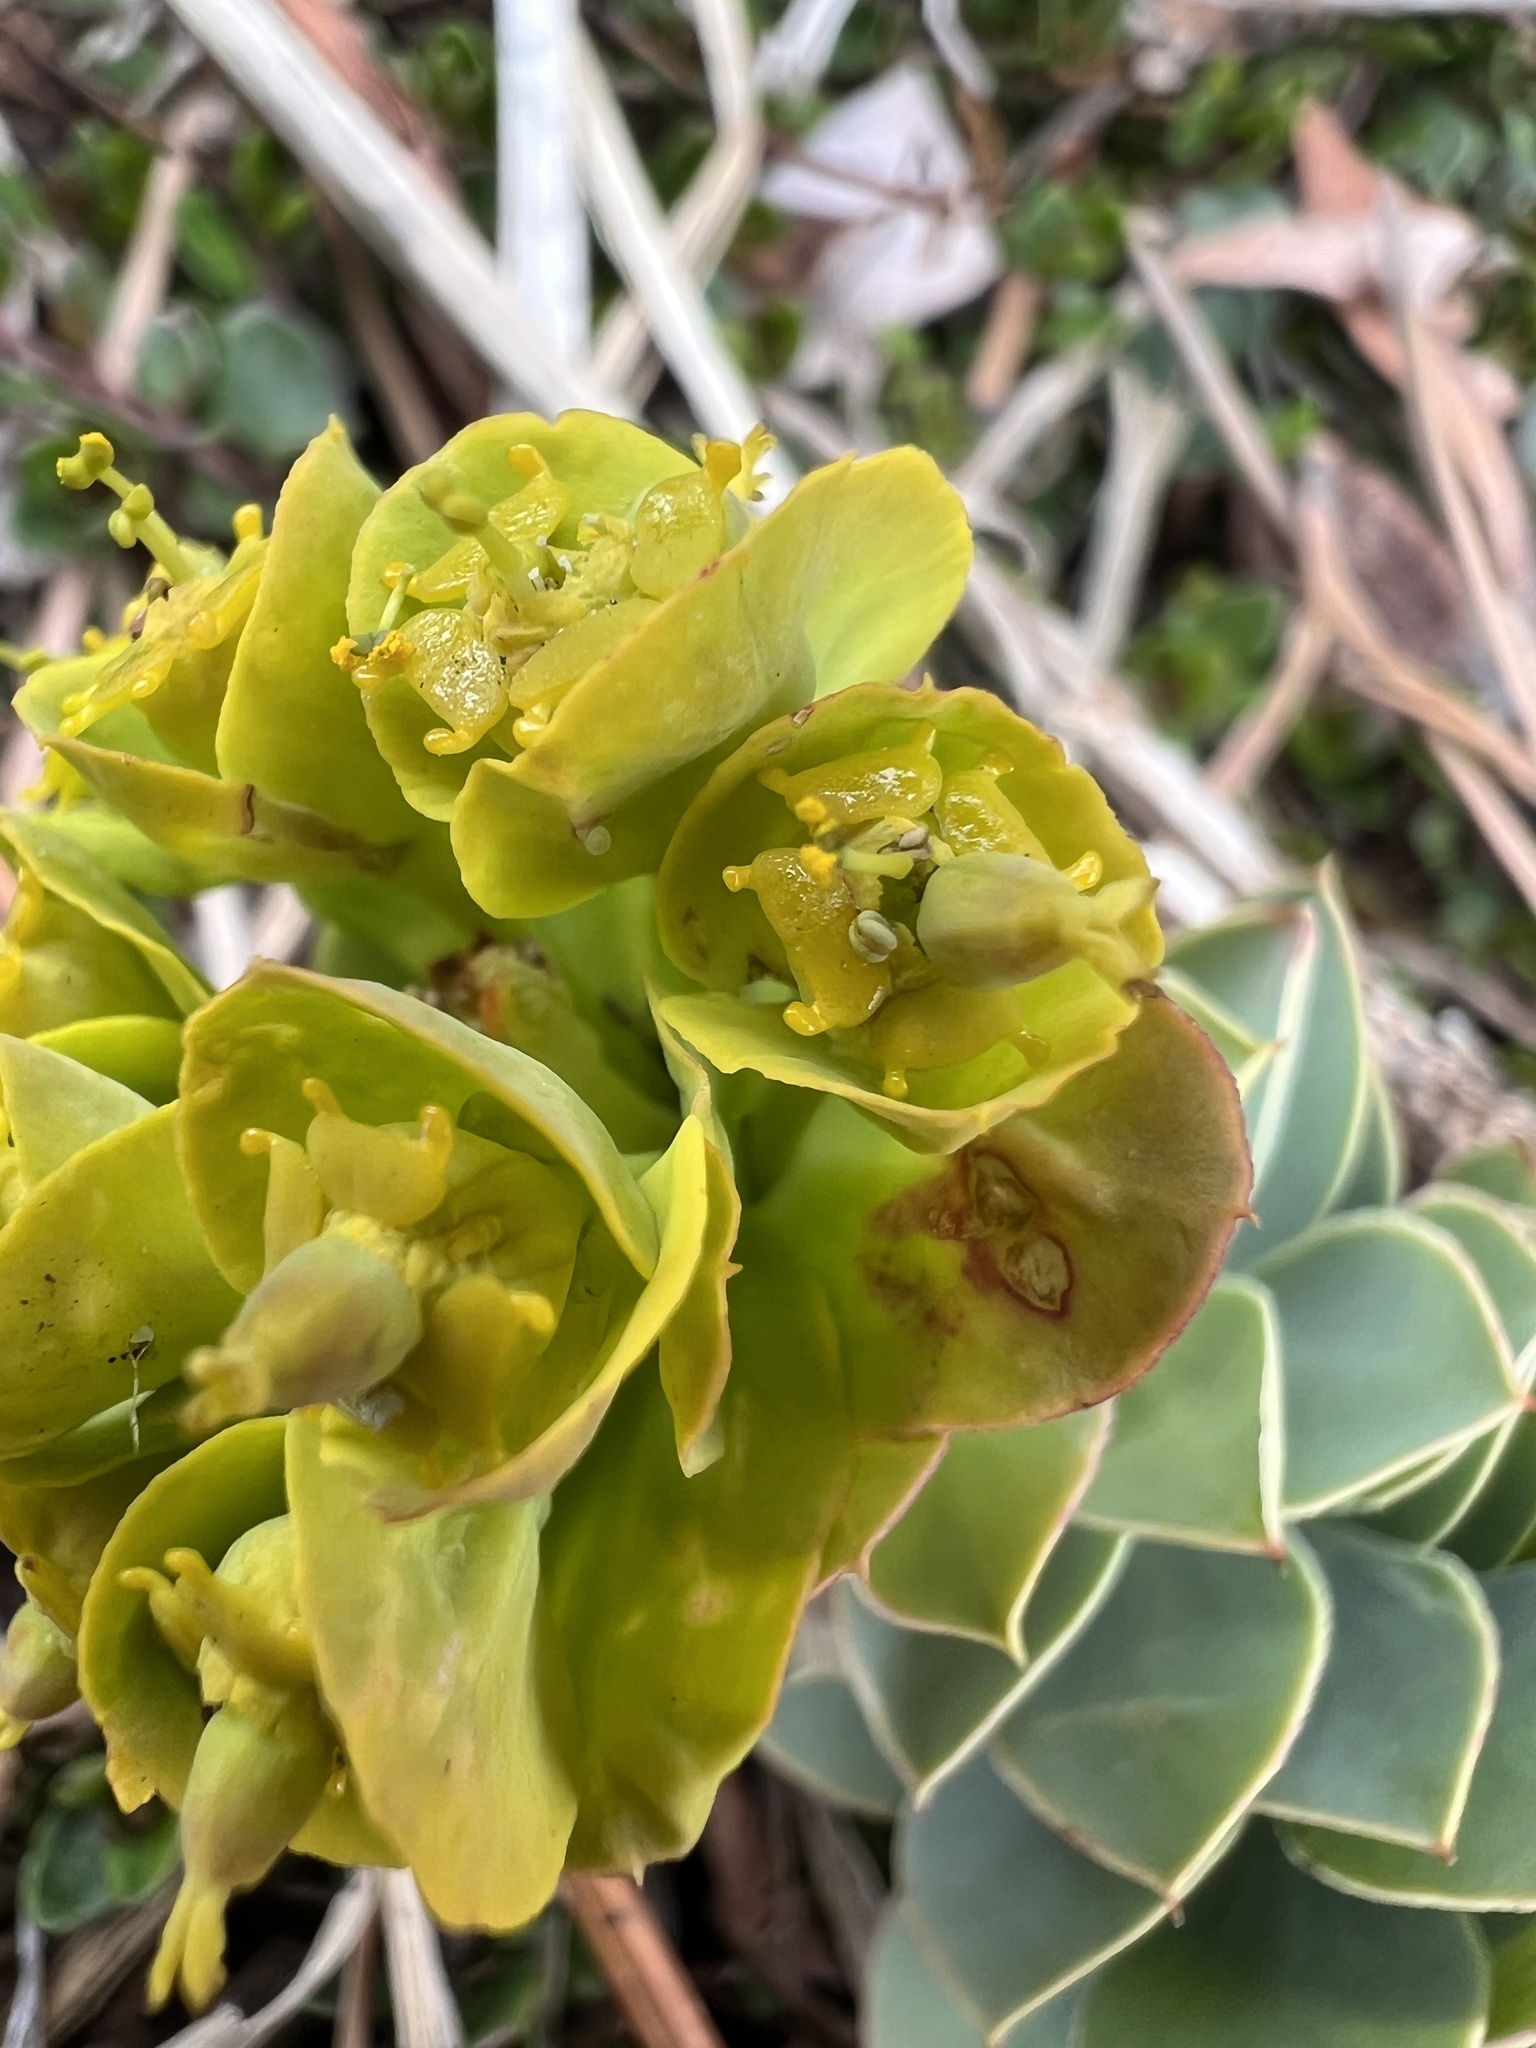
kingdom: Plantae
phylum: Tracheophyta
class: Magnoliopsida
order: Malpighiales
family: Euphorbiaceae
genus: Euphorbia
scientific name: Euphorbia myrsinites
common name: Myrtle spurge
